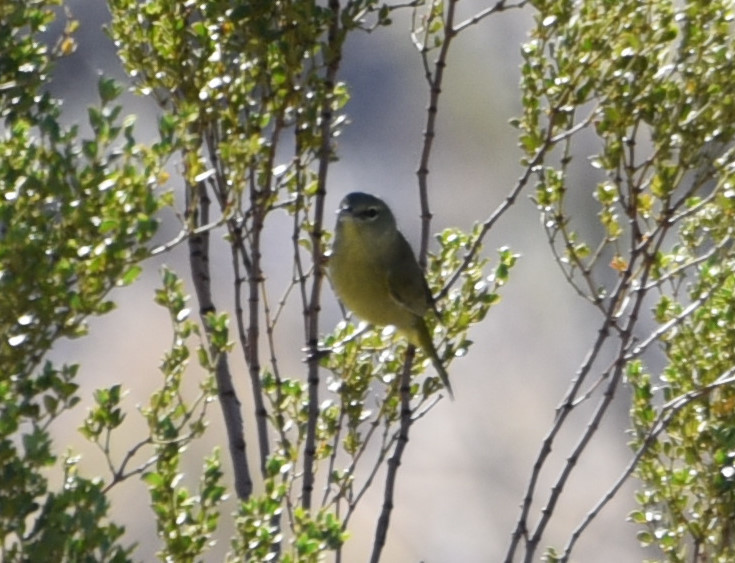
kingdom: Animalia
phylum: Chordata
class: Aves
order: Passeriformes
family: Parulidae
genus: Leiothlypis
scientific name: Leiothlypis celata
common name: Orange-crowned warbler
